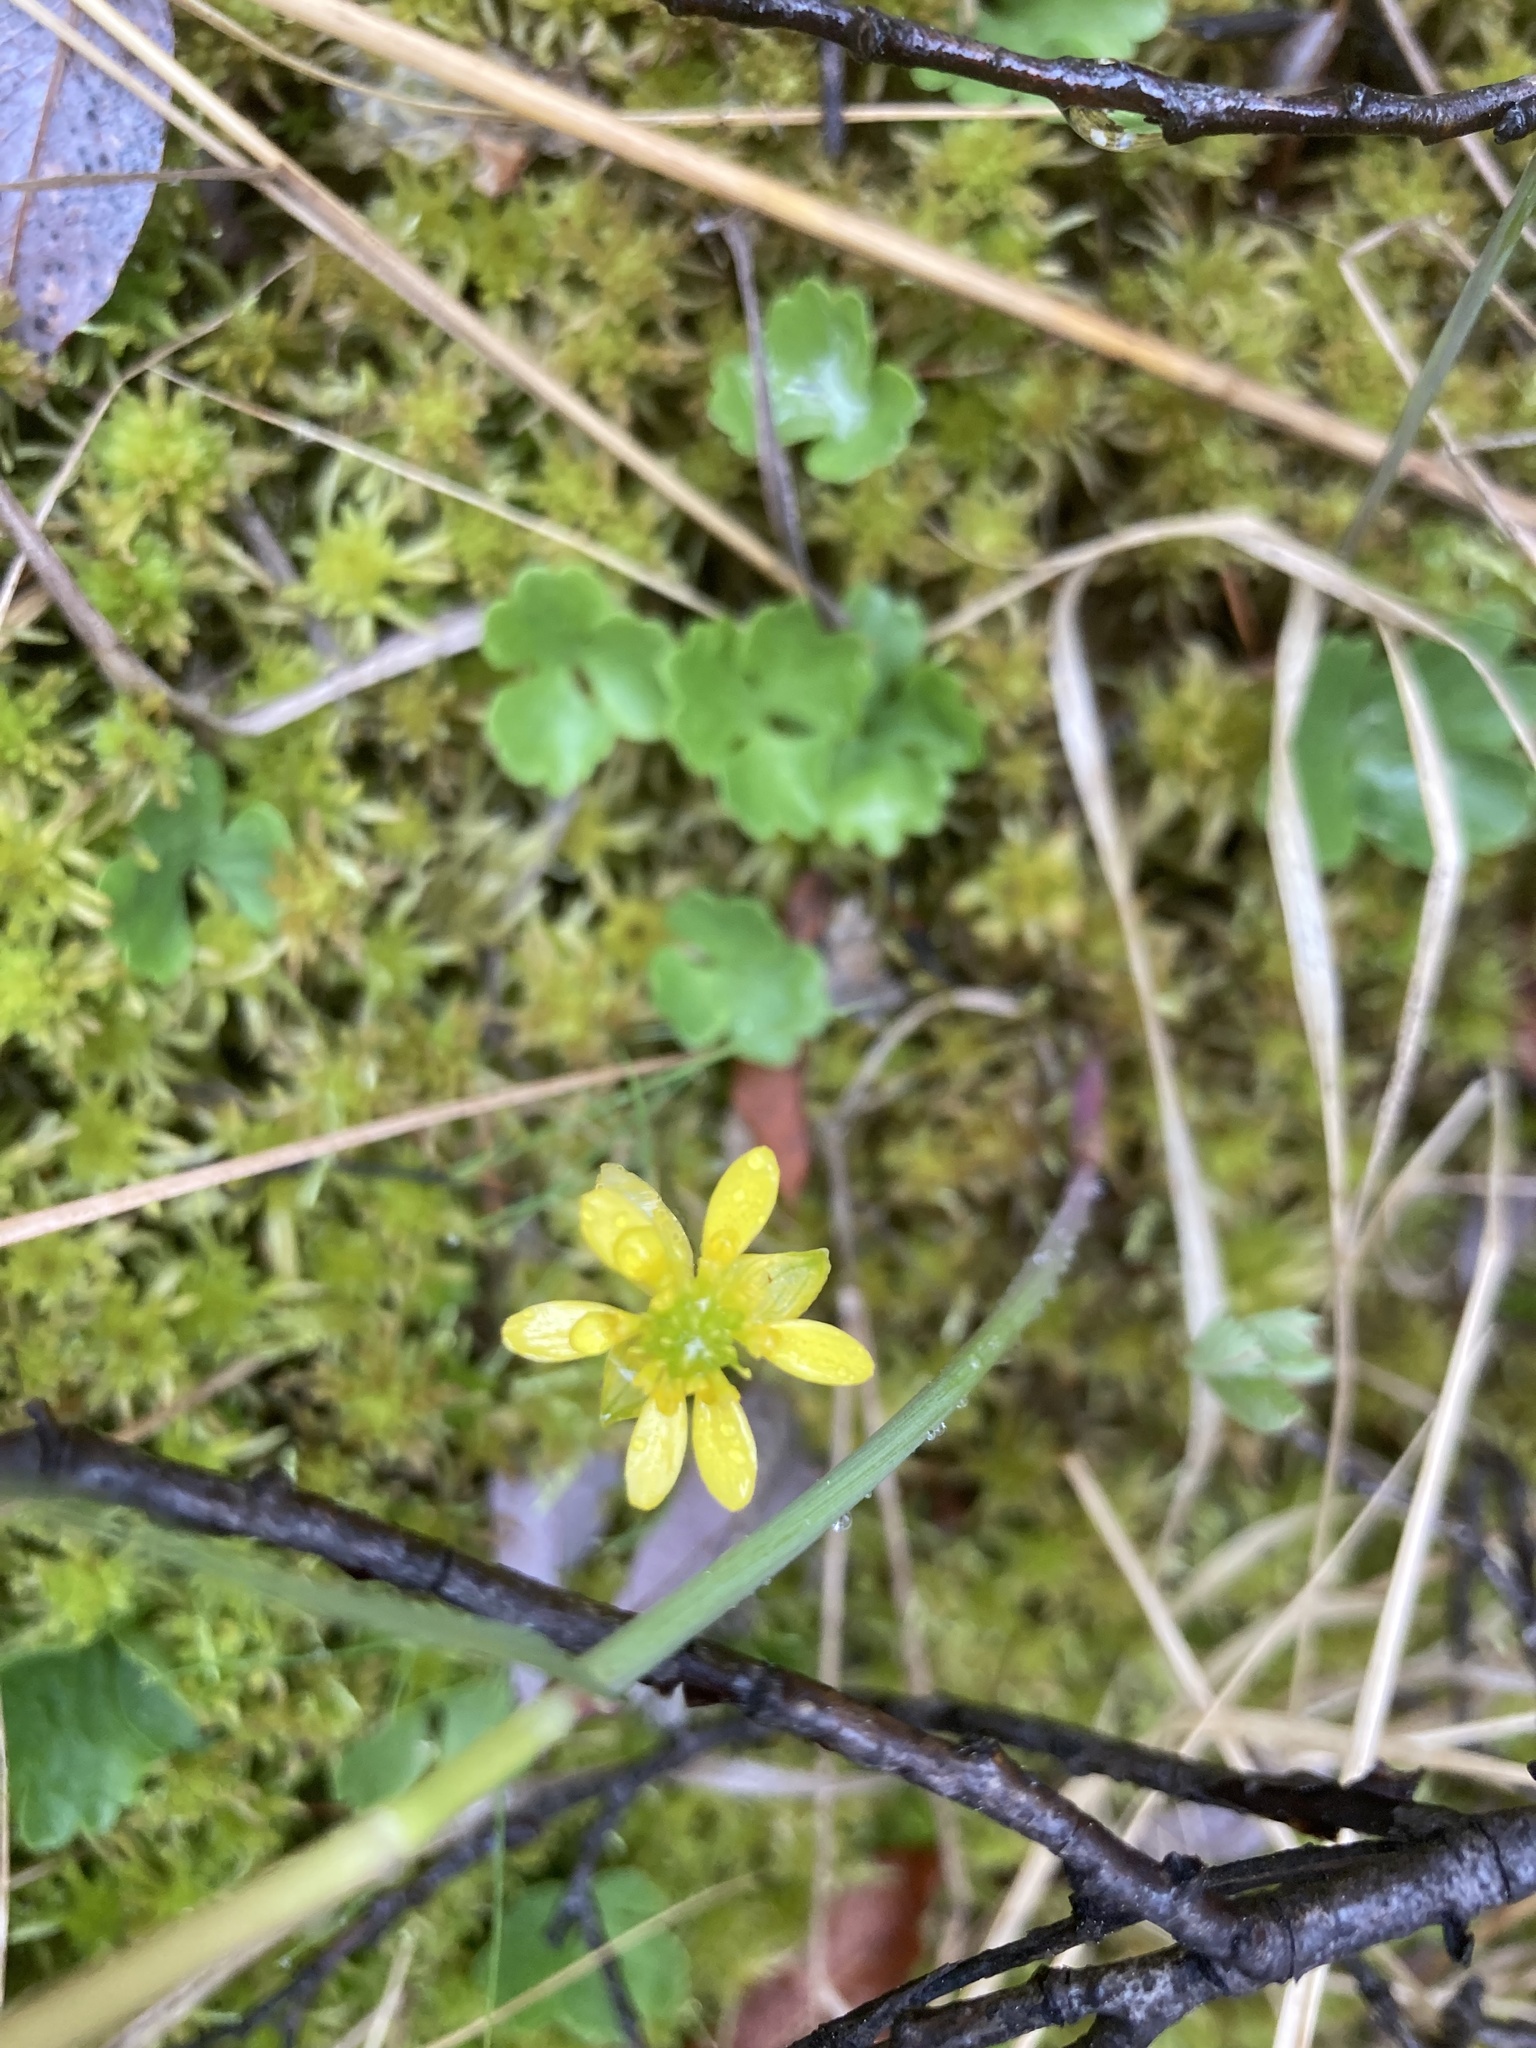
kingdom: Plantae
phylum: Tracheophyta
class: Magnoliopsida
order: Ranunculales
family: Ranunculaceae
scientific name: Ranunculaceae
